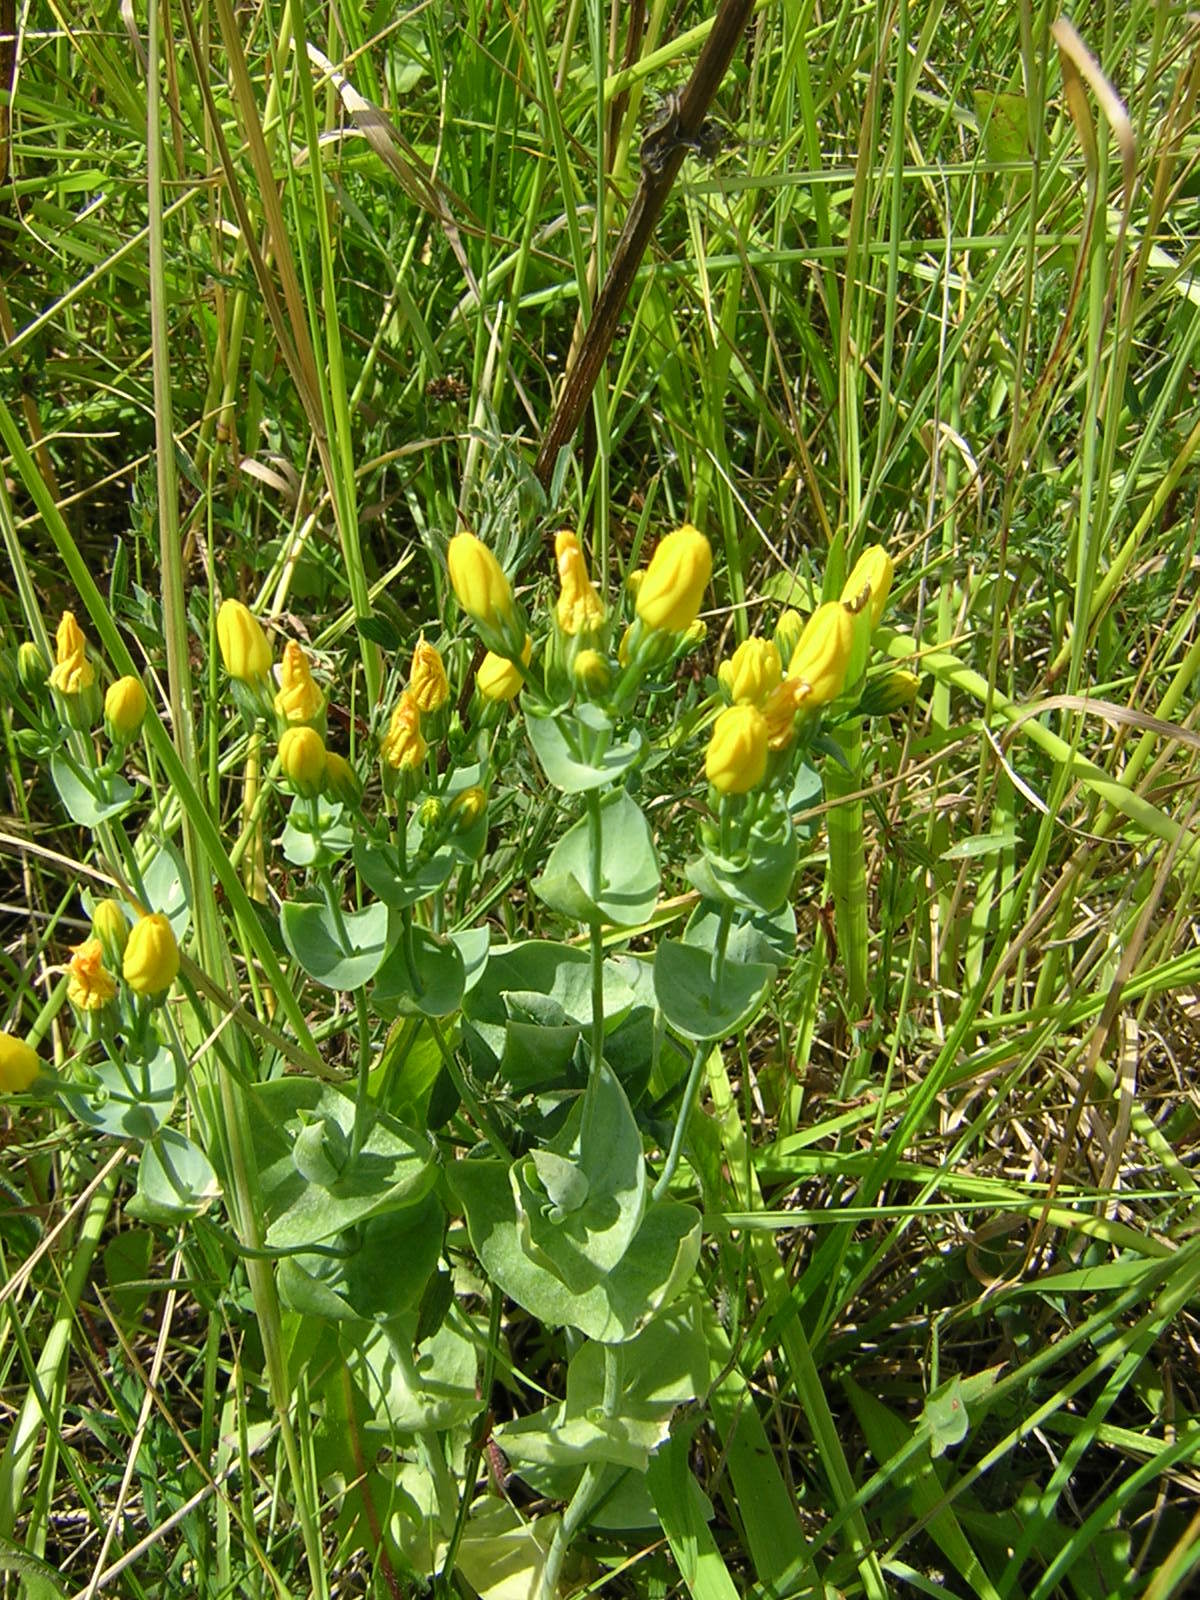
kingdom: Plantae
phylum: Tracheophyta
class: Magnoliopsida
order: Gentianales
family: Gentianaceae
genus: Blackstonia
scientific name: Blackstonia perfoliata
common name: Yellow-wort
